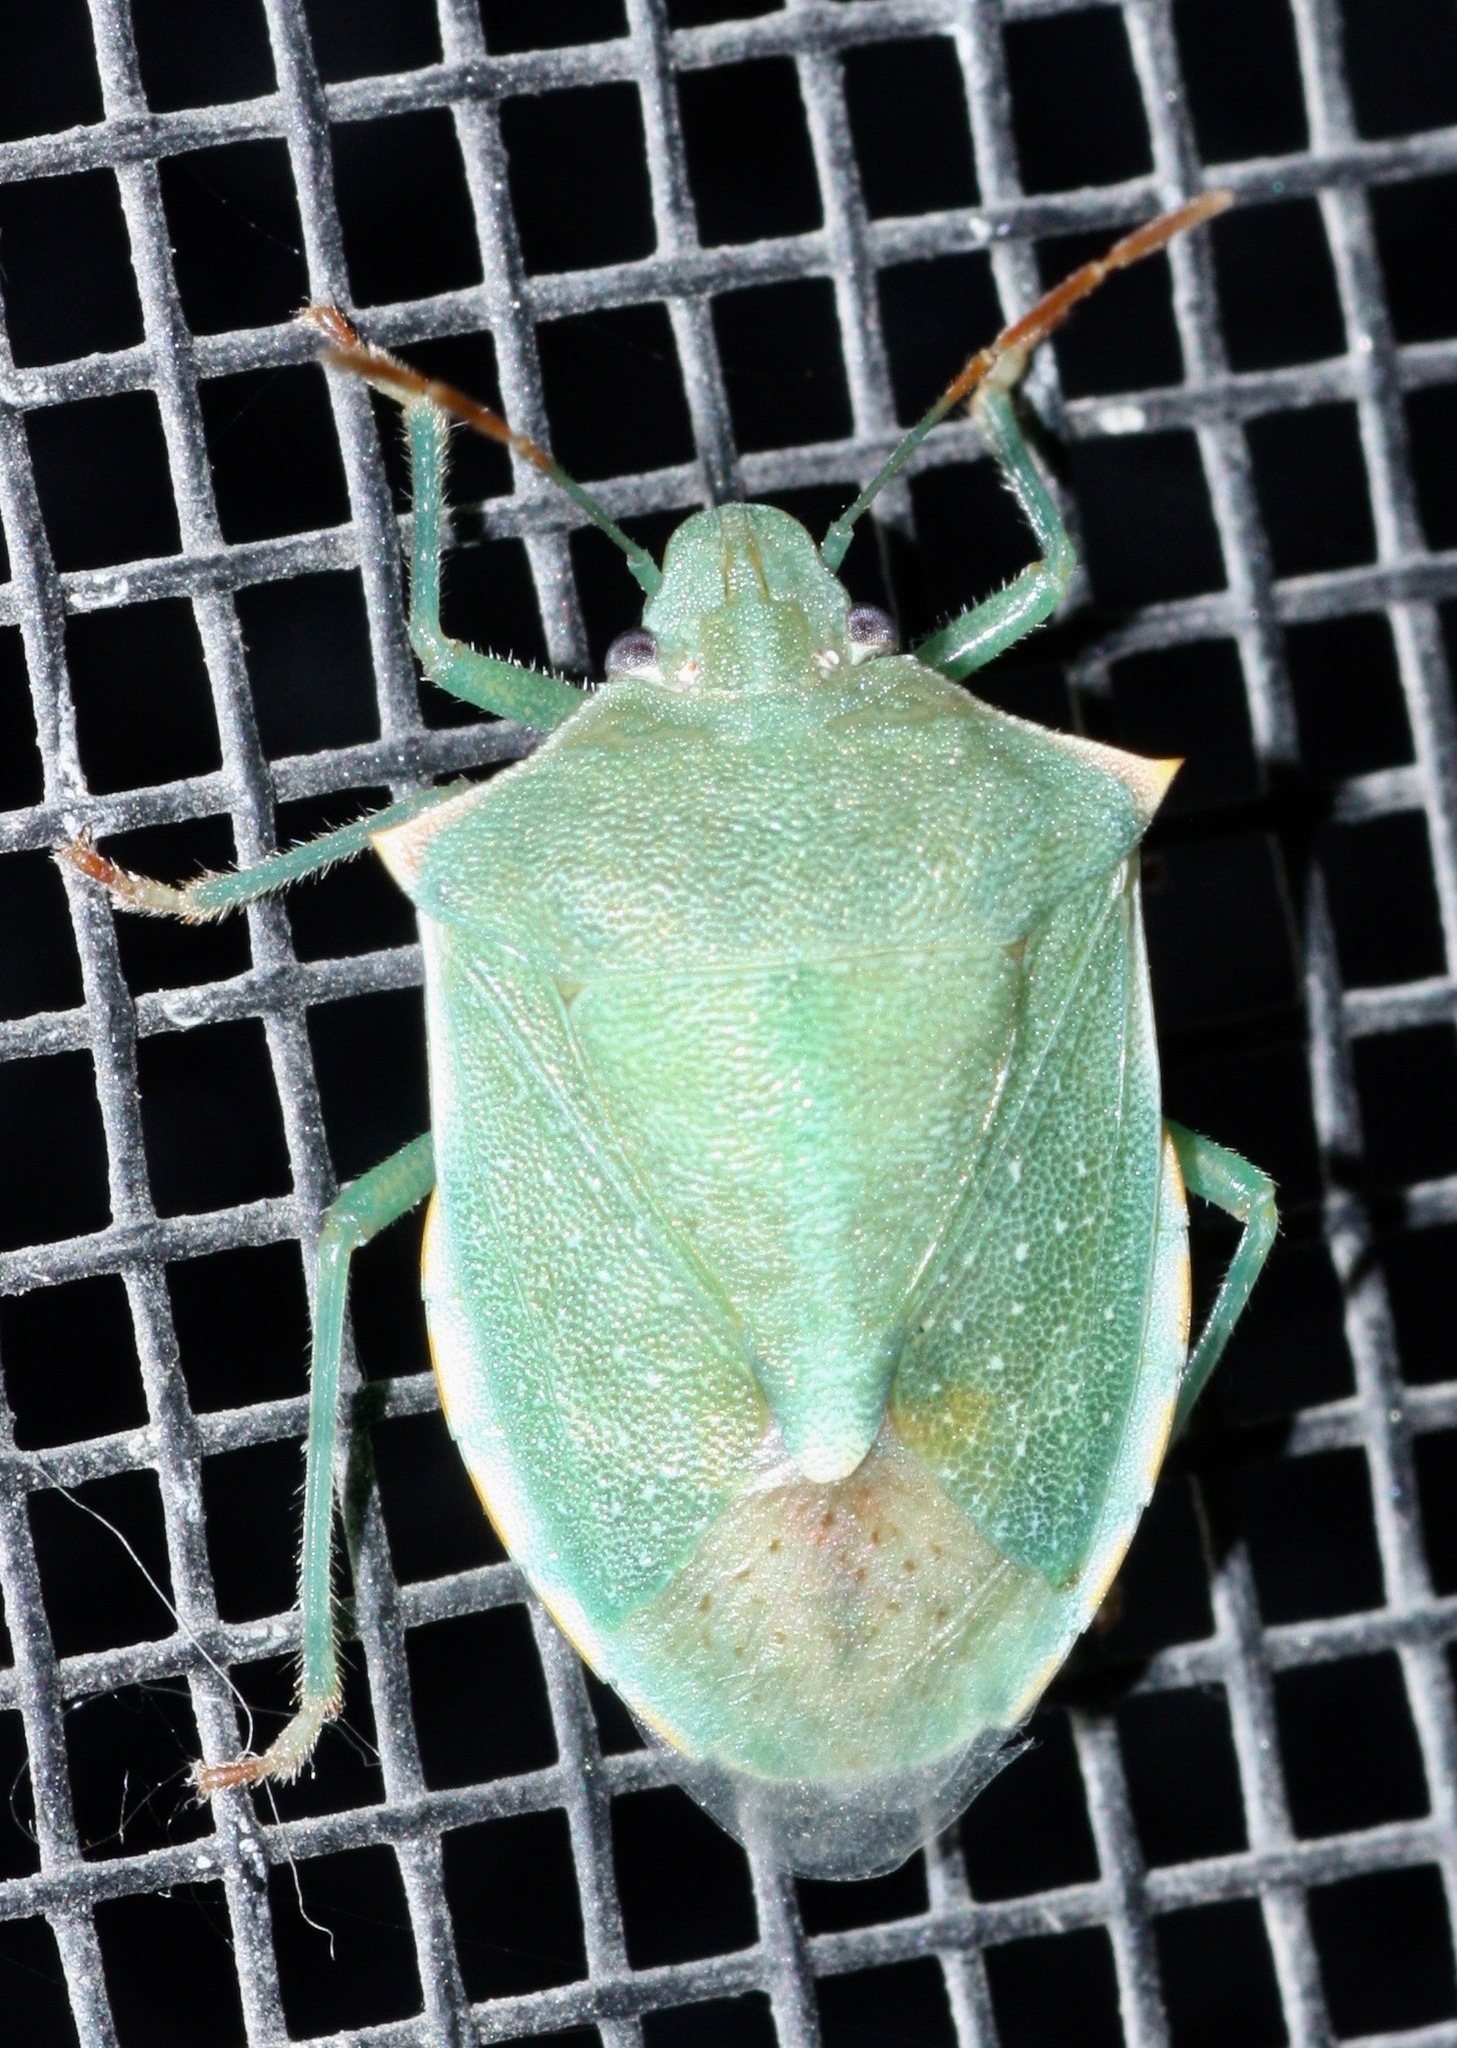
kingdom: Animalia
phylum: Arthropoda
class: Insecta
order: Hemiptera
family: Pentatomidae
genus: Thyanta
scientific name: Thyanta accerra
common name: Stink bug
